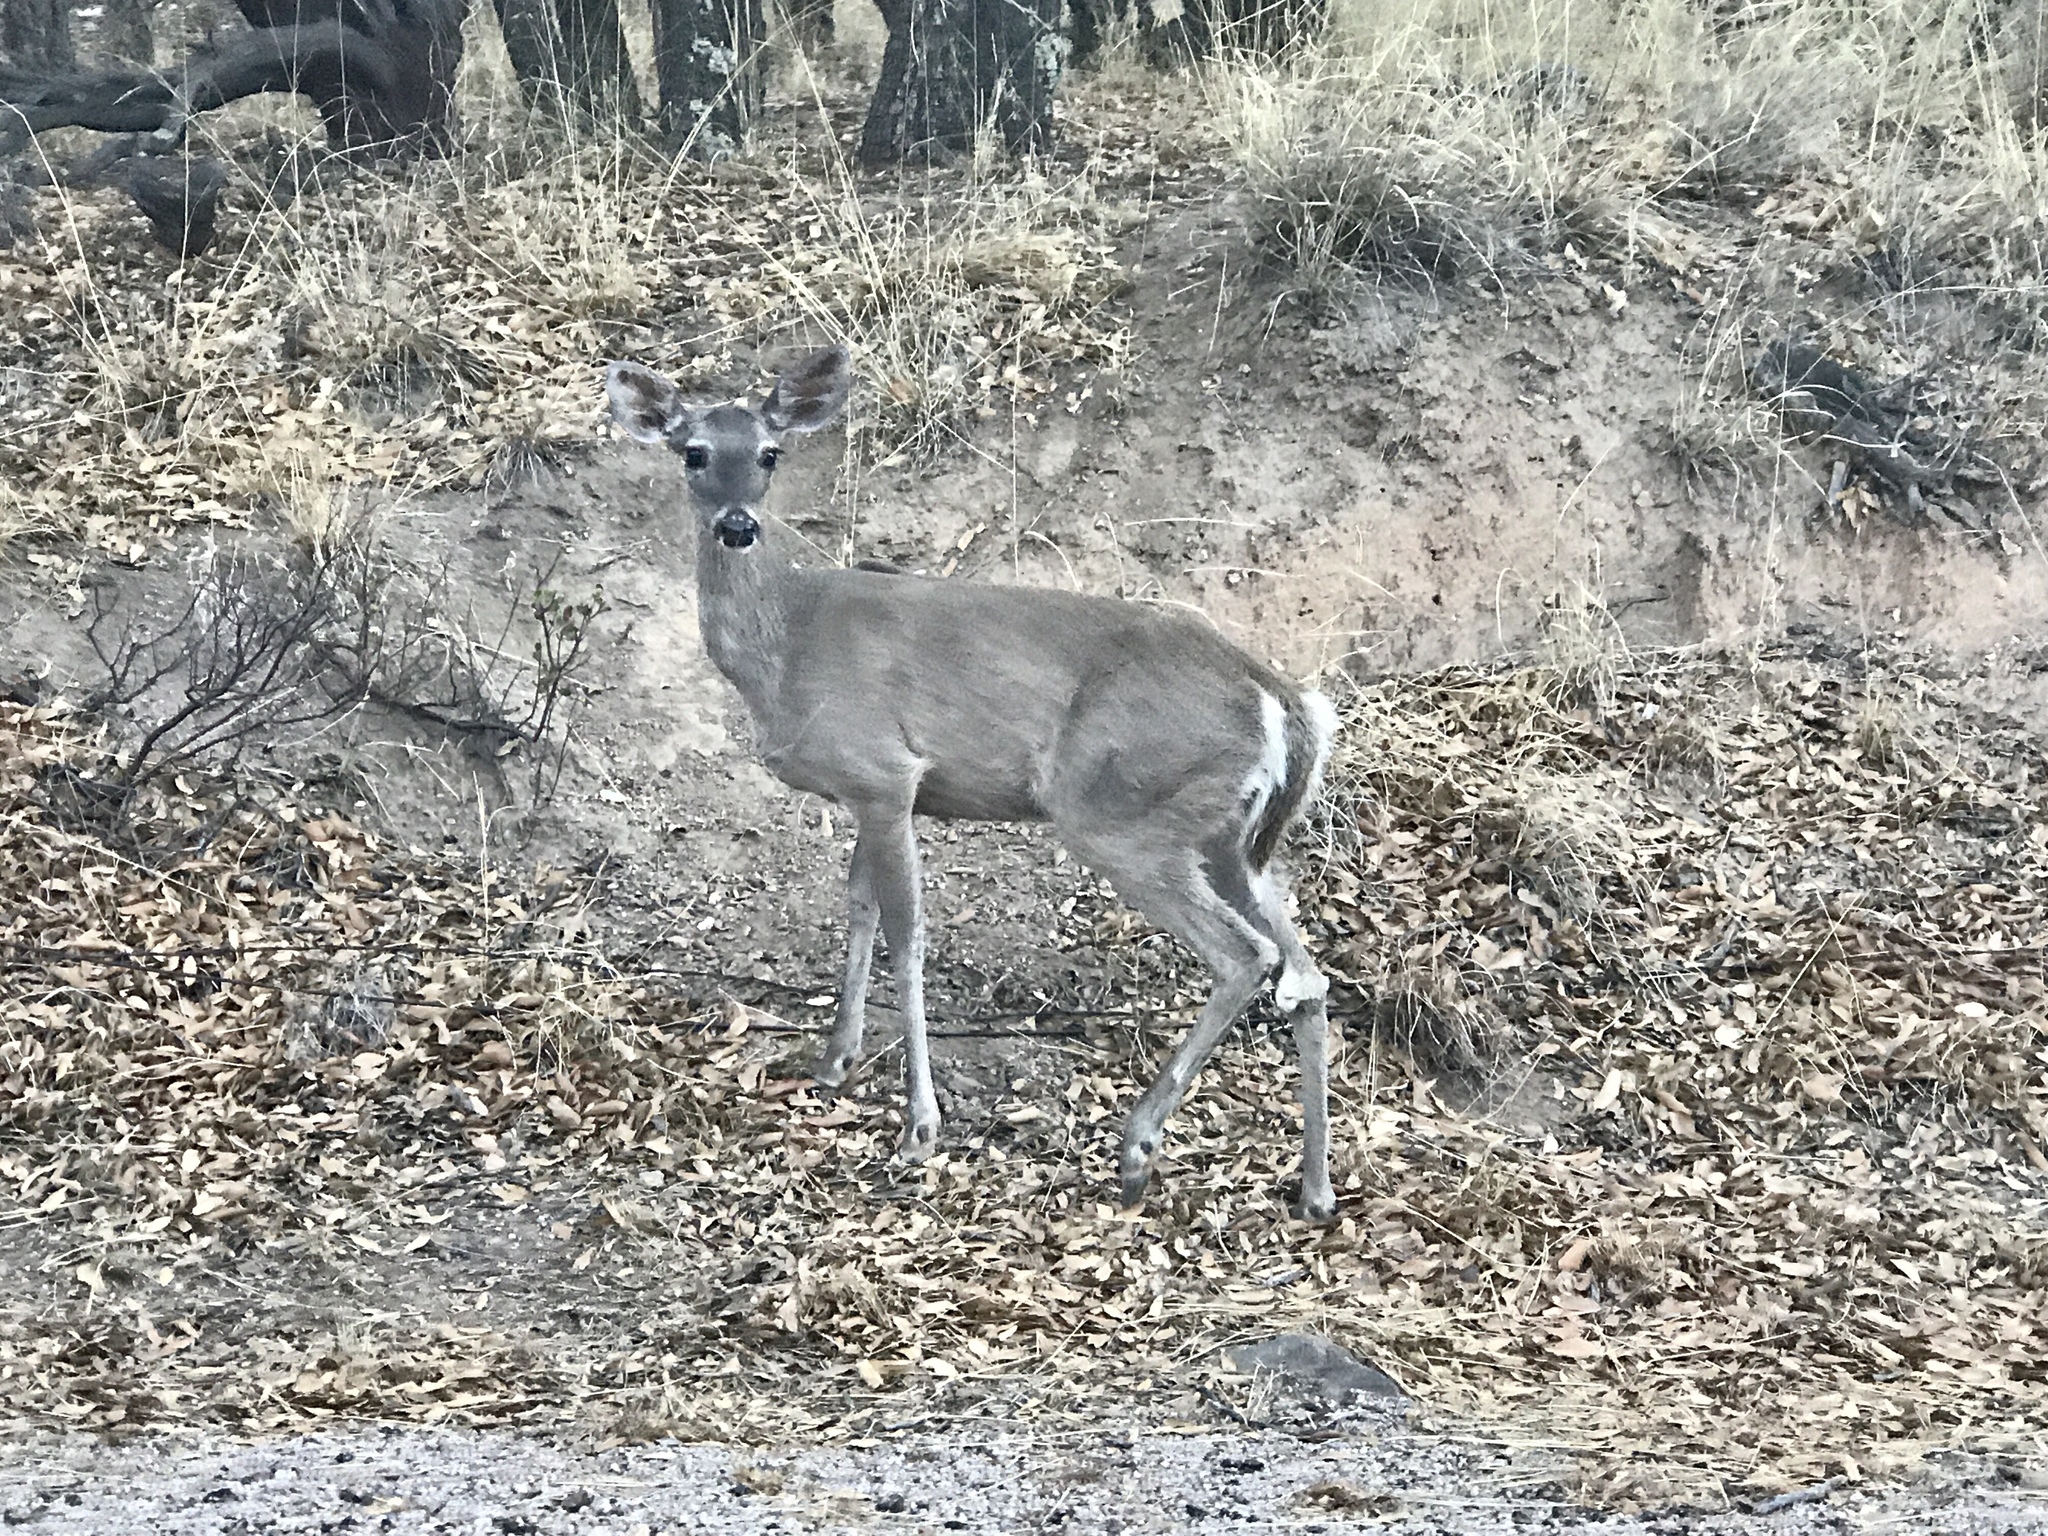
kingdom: Animalia
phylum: Chordata
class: Mammalia
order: Artiodactyla
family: Cervidae
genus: Odocoileus
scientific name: Odocoileus virginianus
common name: White-tailed deer
